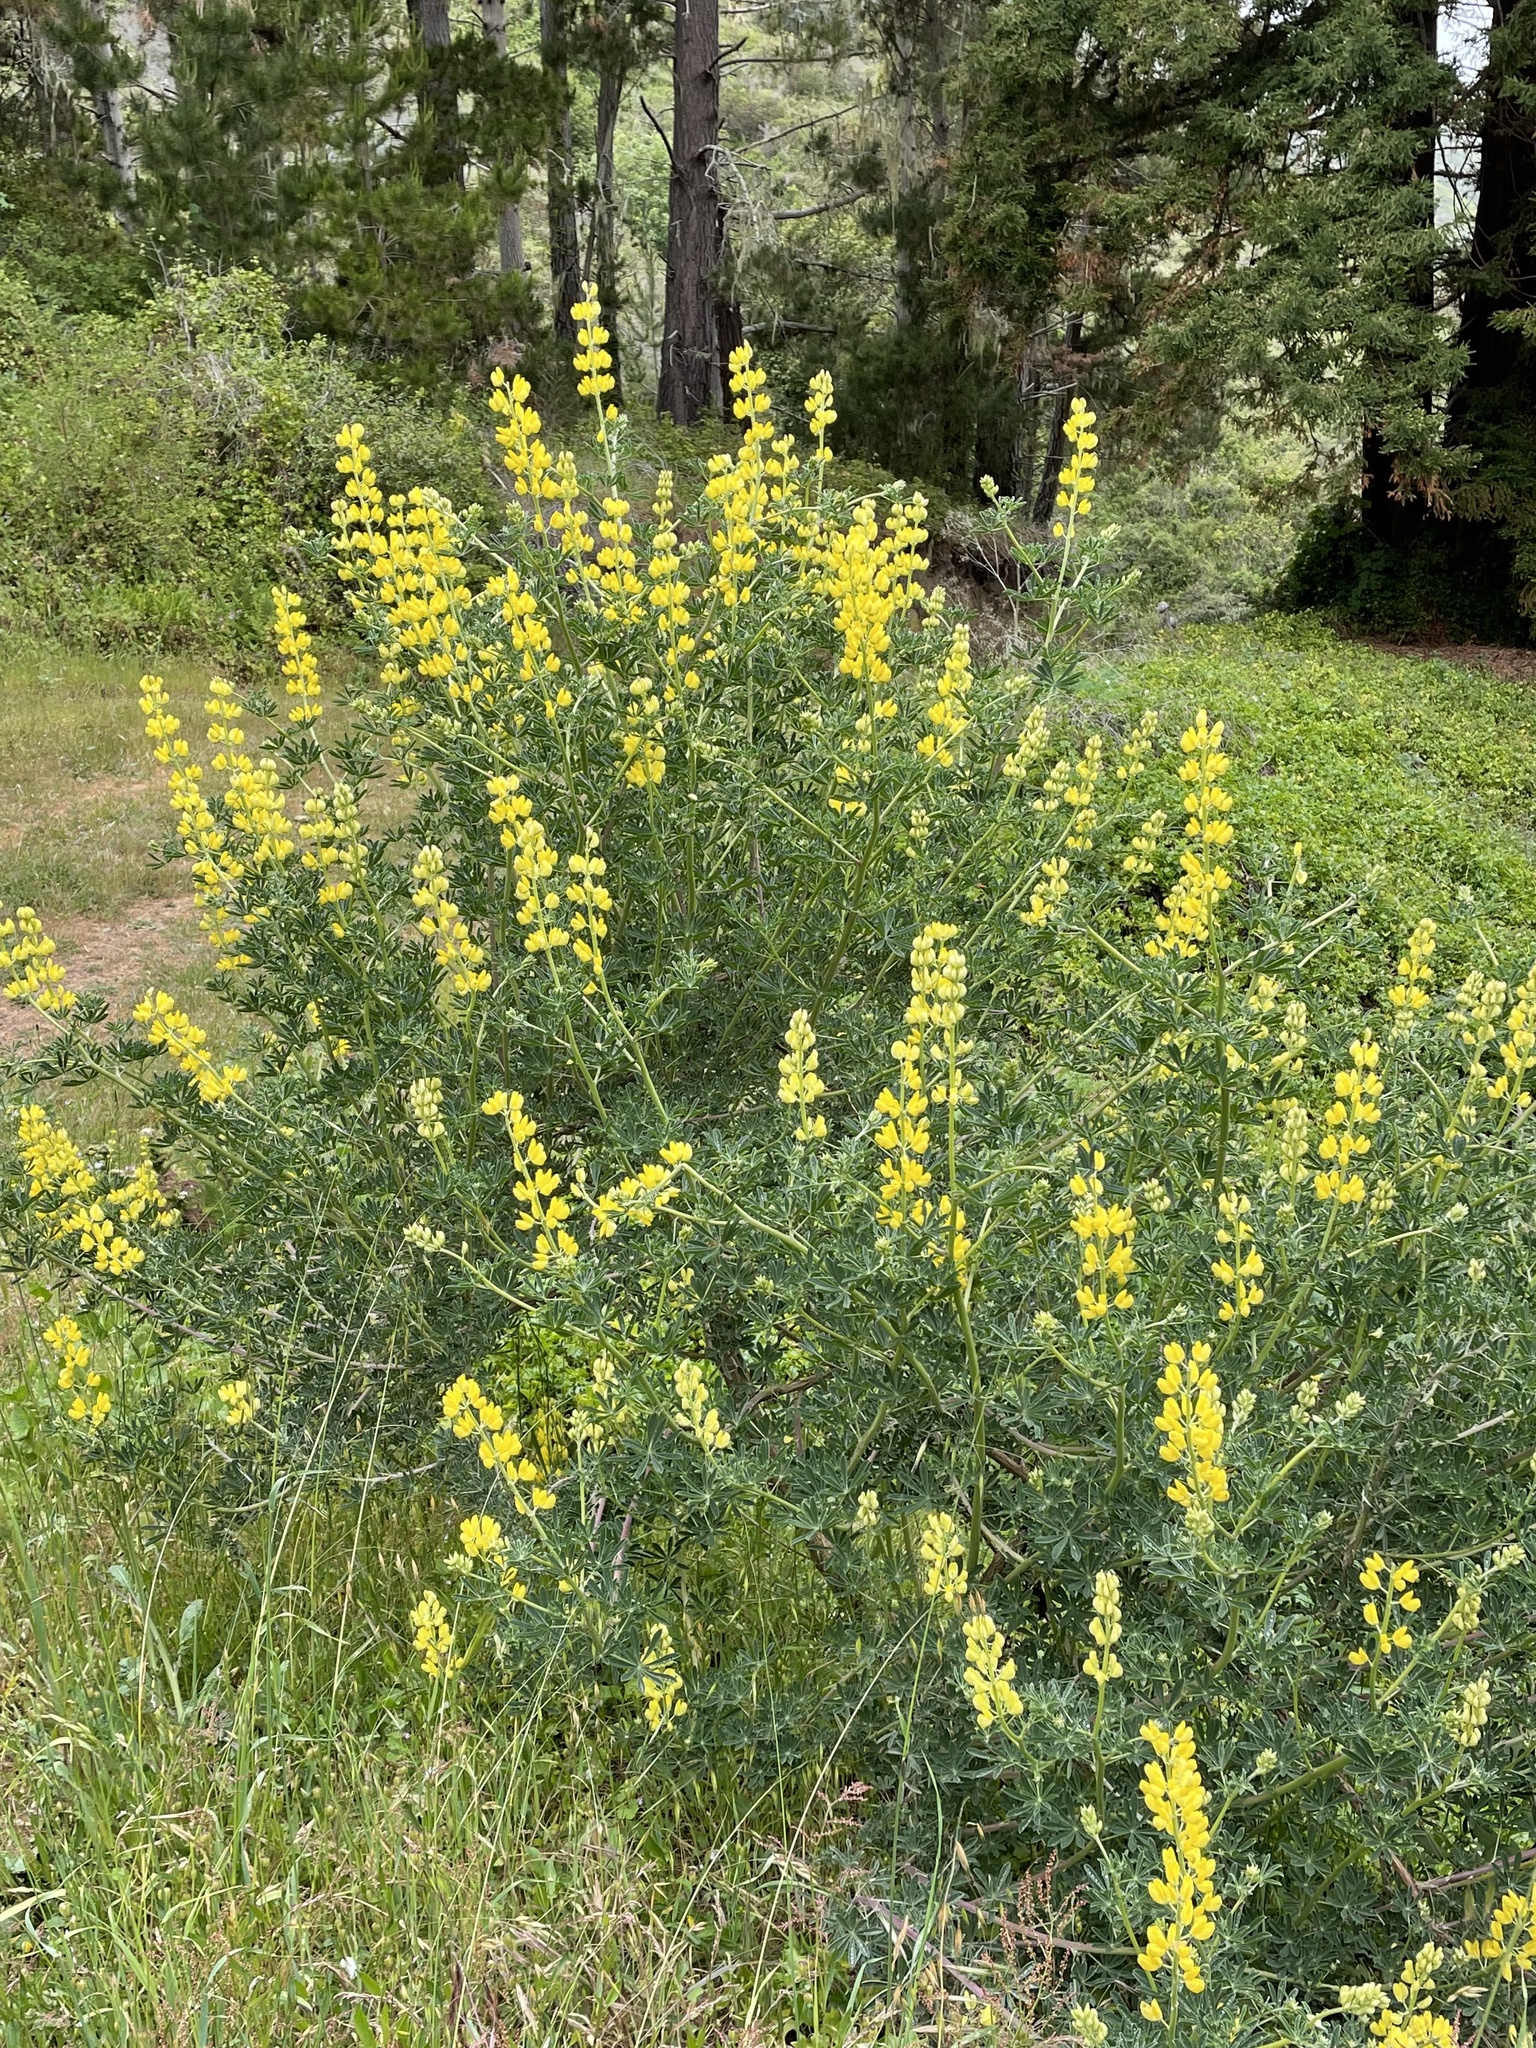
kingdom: Plantae
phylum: Tracheophyta
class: Magnoliopsida
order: Fabales
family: Fabaceae
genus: Lupinus
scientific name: Lupinus arboreus
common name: Yellow bush lupine
